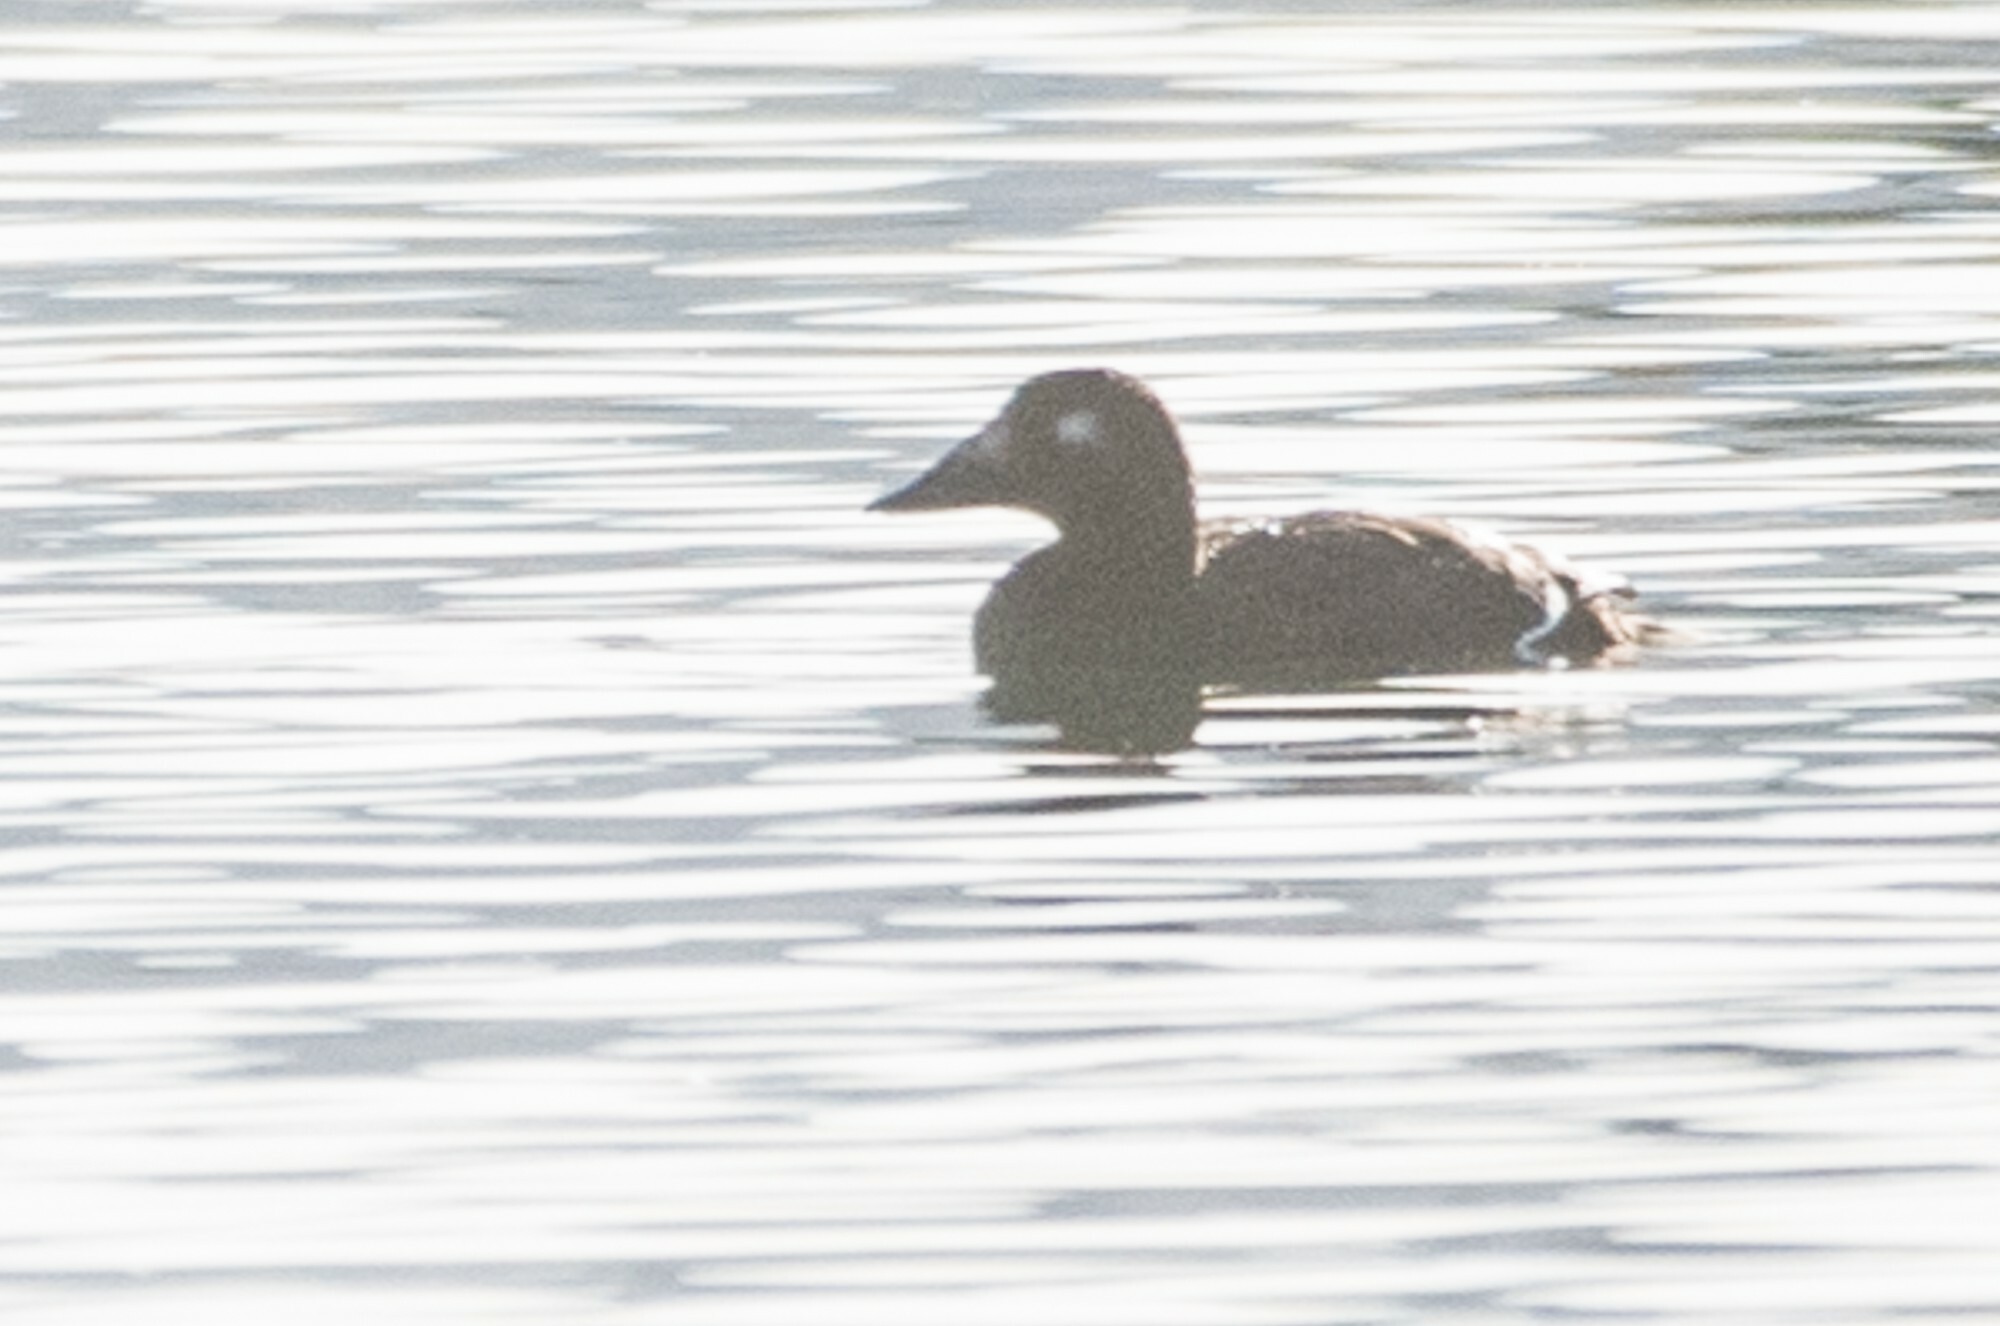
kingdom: Animalia
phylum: Chordata
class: Aves
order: Anseriformes
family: Anatidae
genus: Melanitta
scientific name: Melanitta deglandi
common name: White-winged scoter
